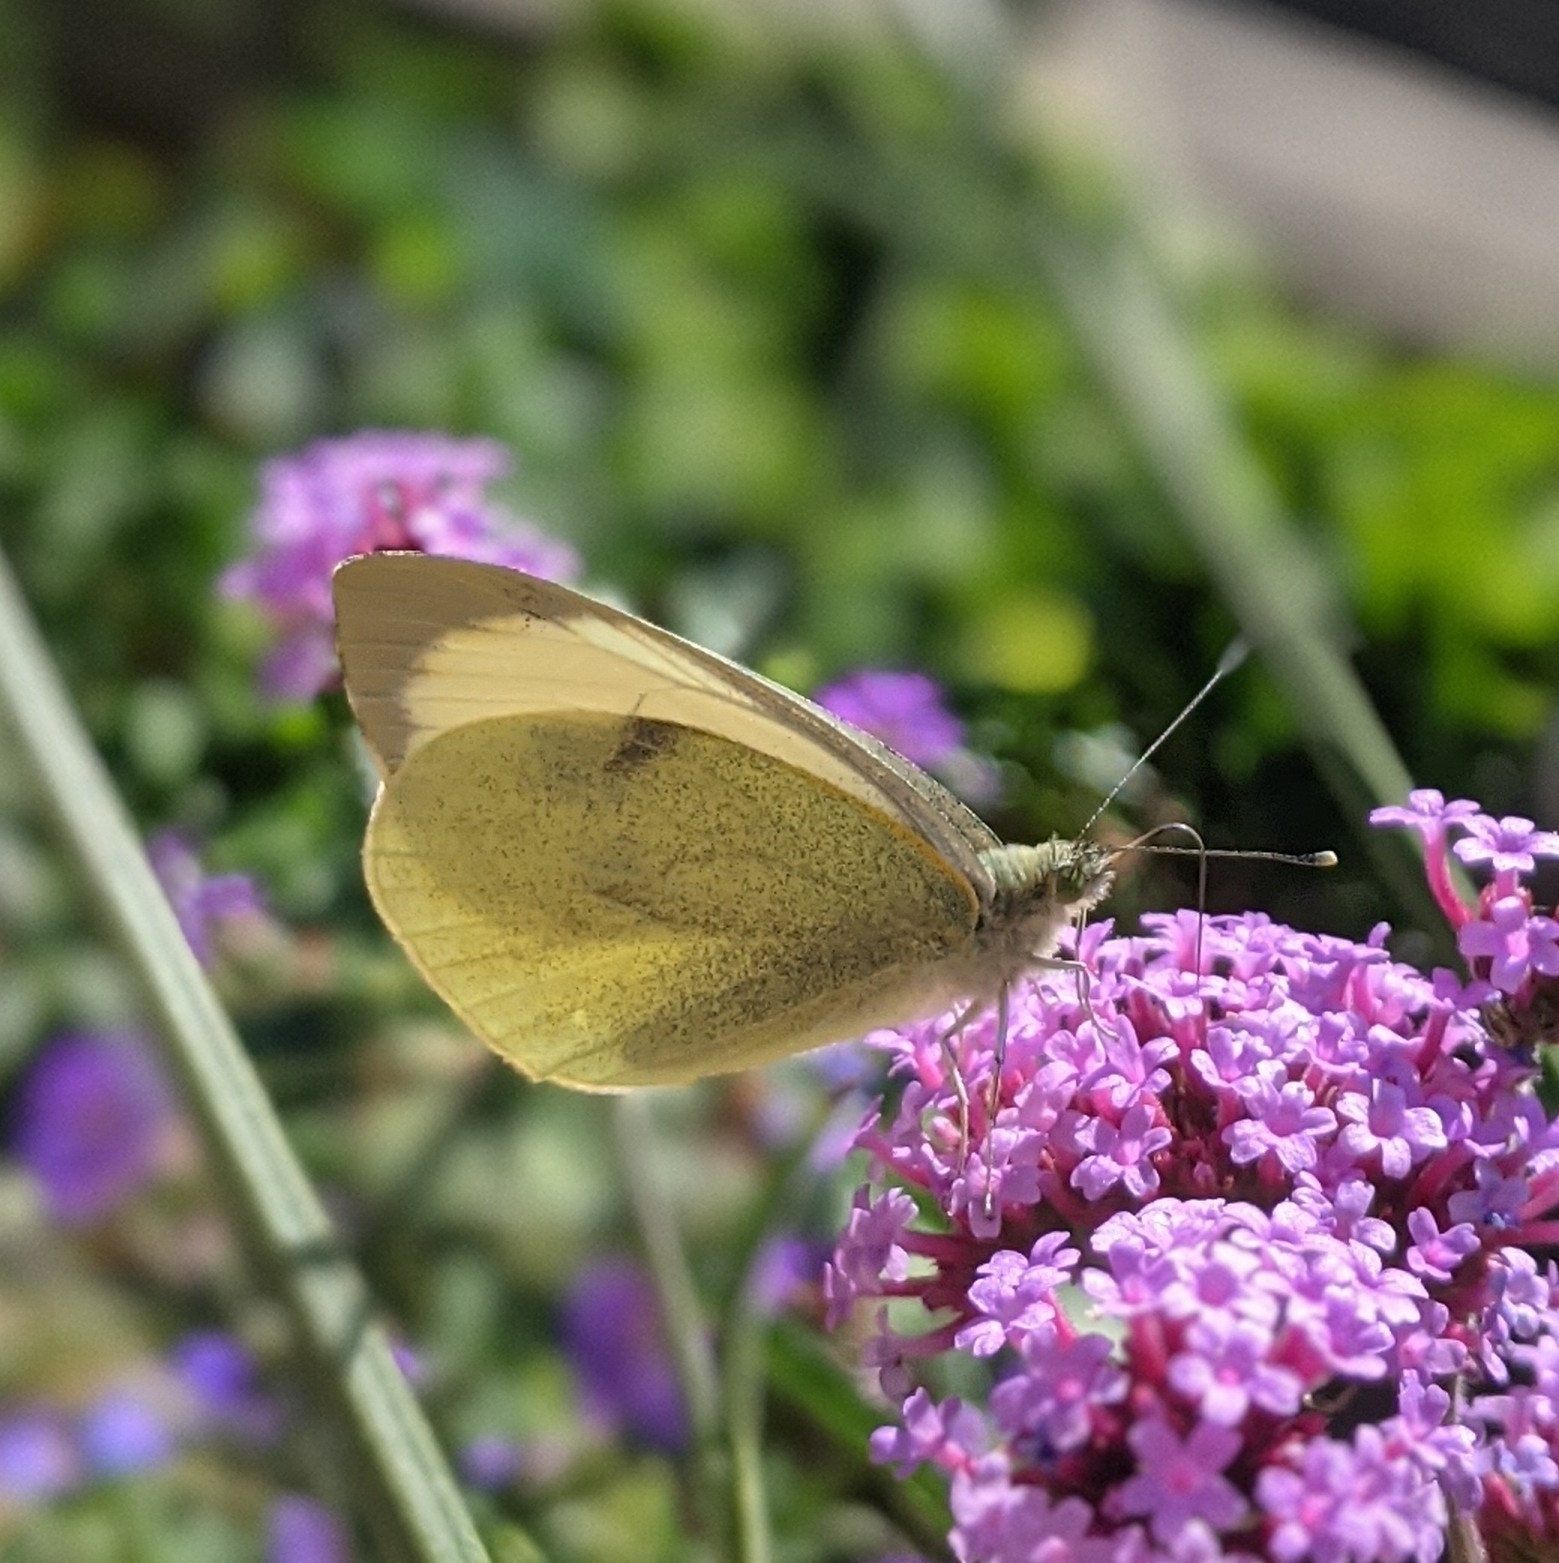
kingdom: Animalia
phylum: Arthropoda
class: Insecta
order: Lepidoptera
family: Pieridae
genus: Pieris
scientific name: Pieris brassicae
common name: Large white
